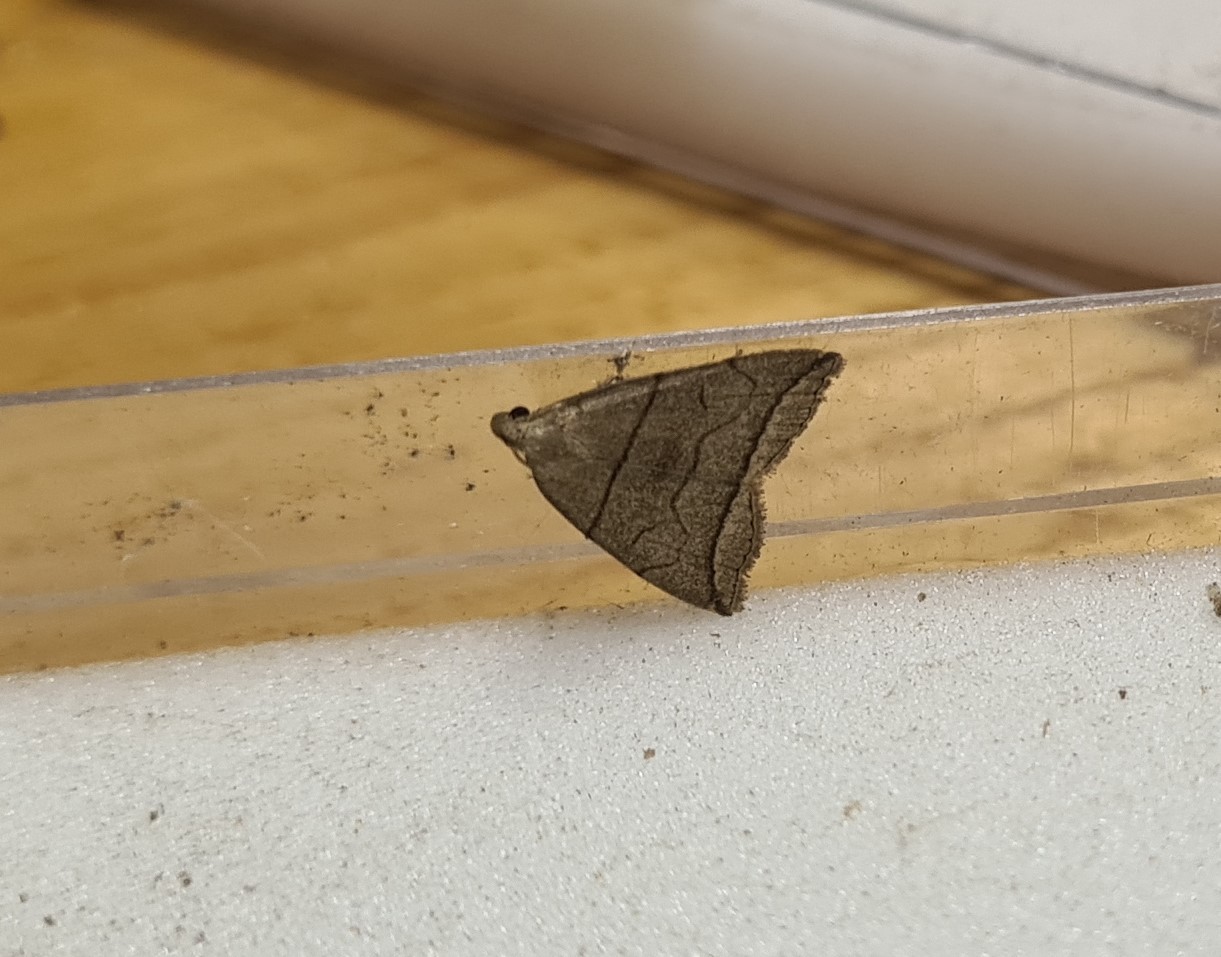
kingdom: Animalia
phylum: Arthropoda
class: Insecta
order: Lepidoptera
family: Erebidae
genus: Herminia
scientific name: Herminia grisealis
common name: Small fan-foot
